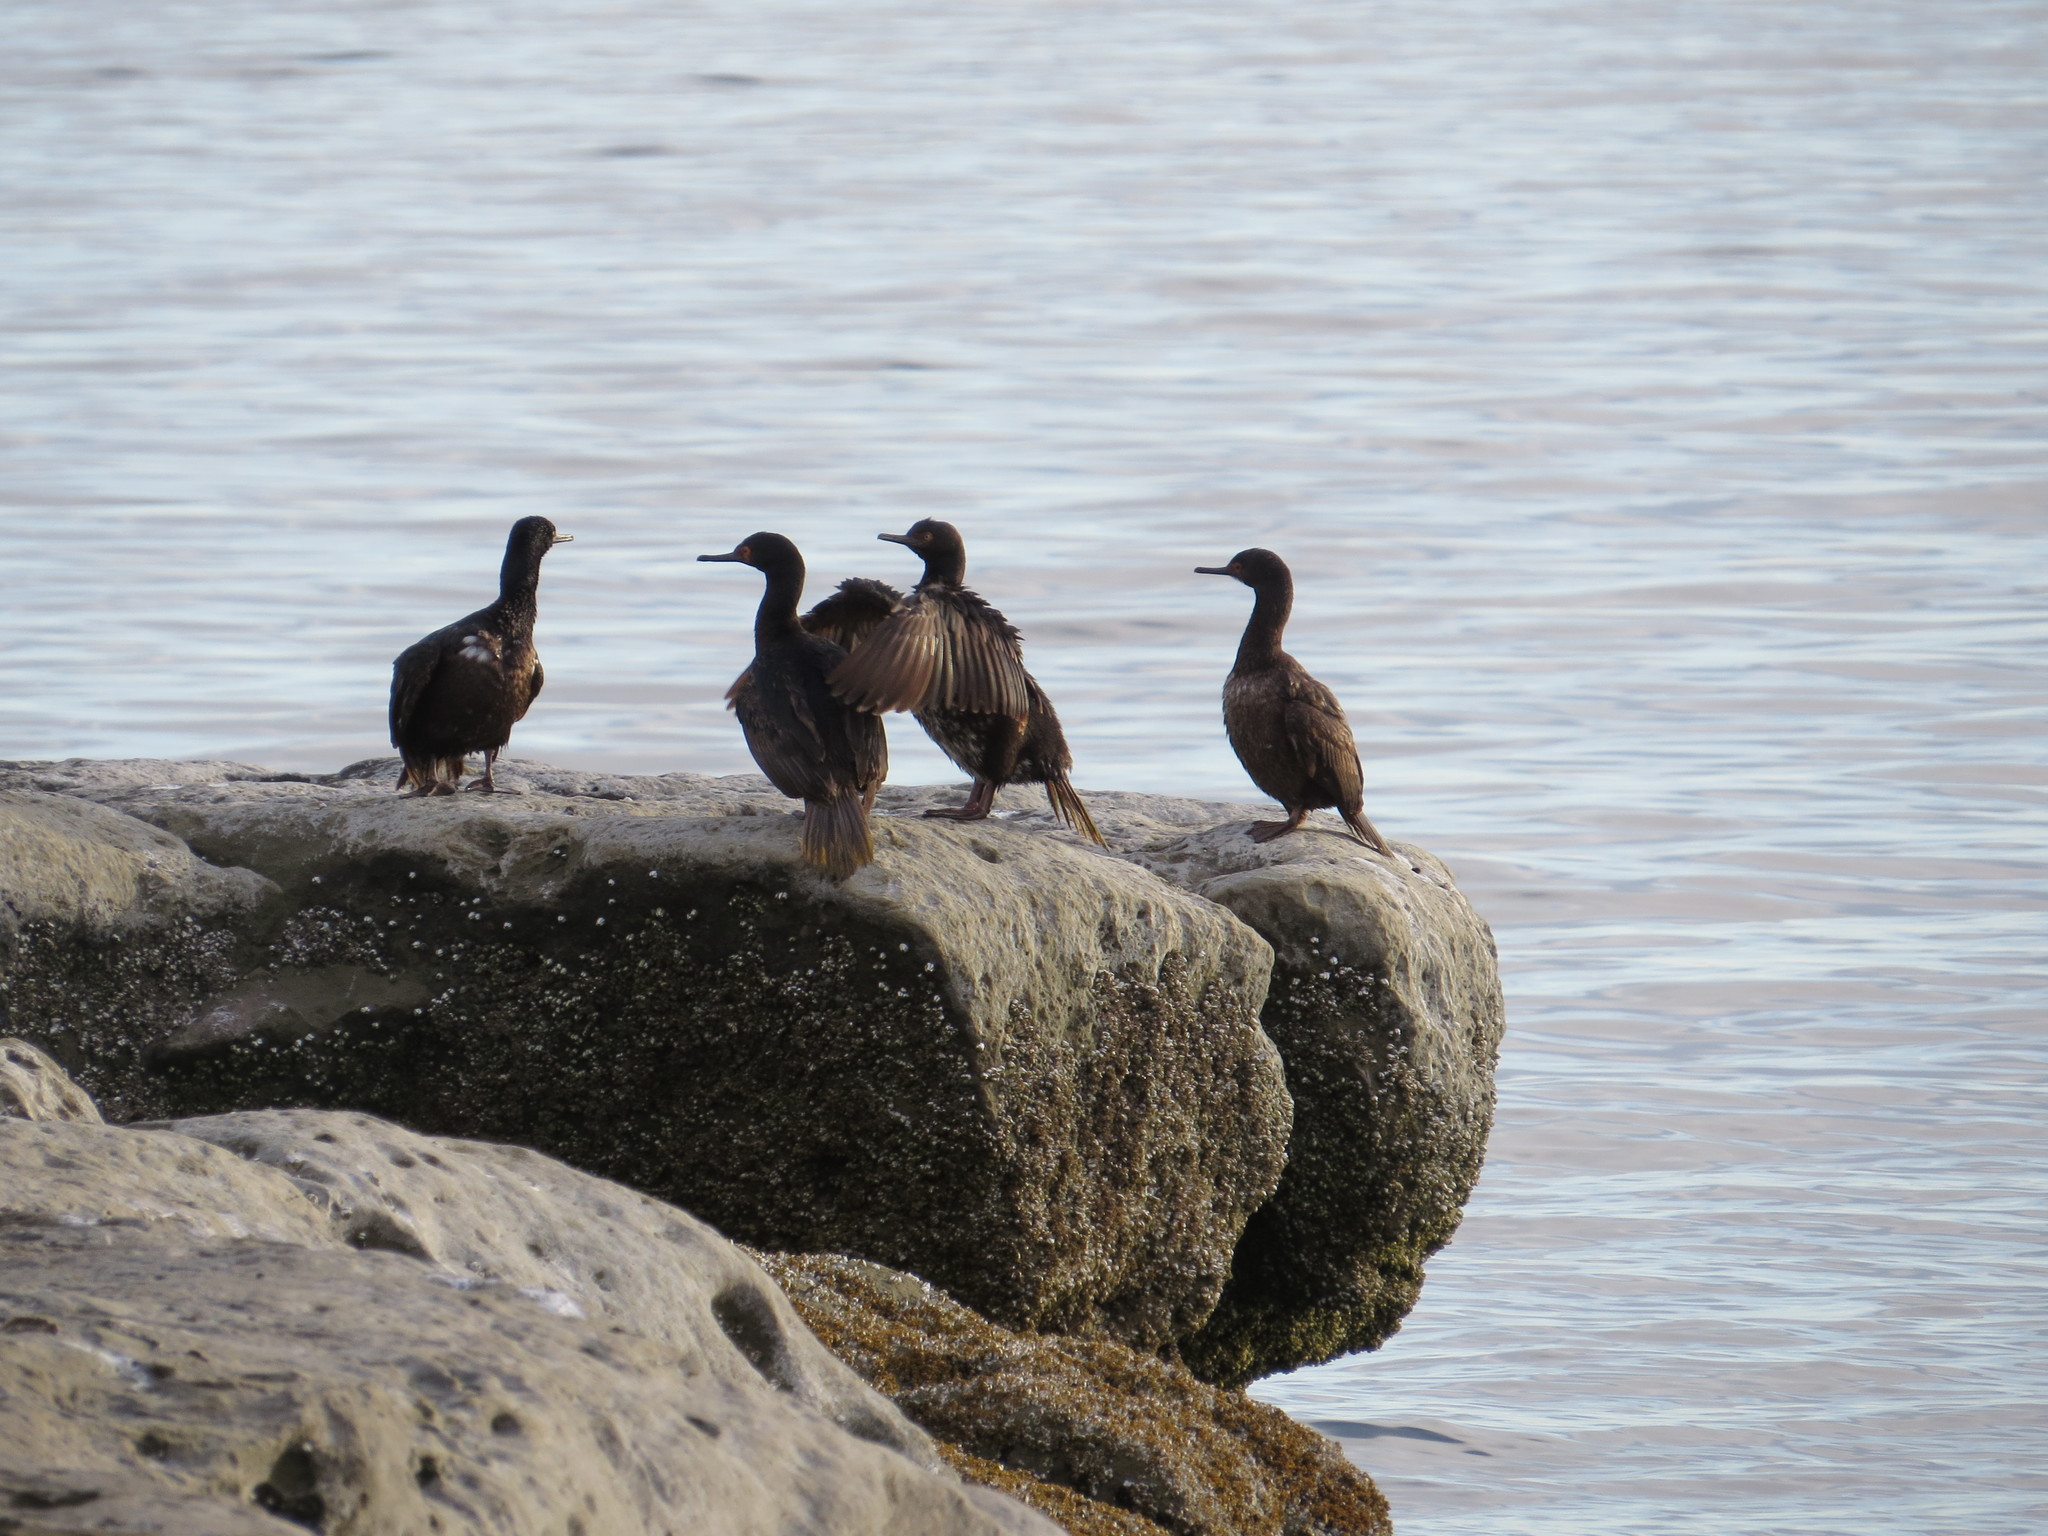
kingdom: Animalia
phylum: Chordata
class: Aves
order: Suliformes
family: Phalacrocoracidae
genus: Phalacrocorax
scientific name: Phalacrocorax magellanicus
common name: Rock shag
